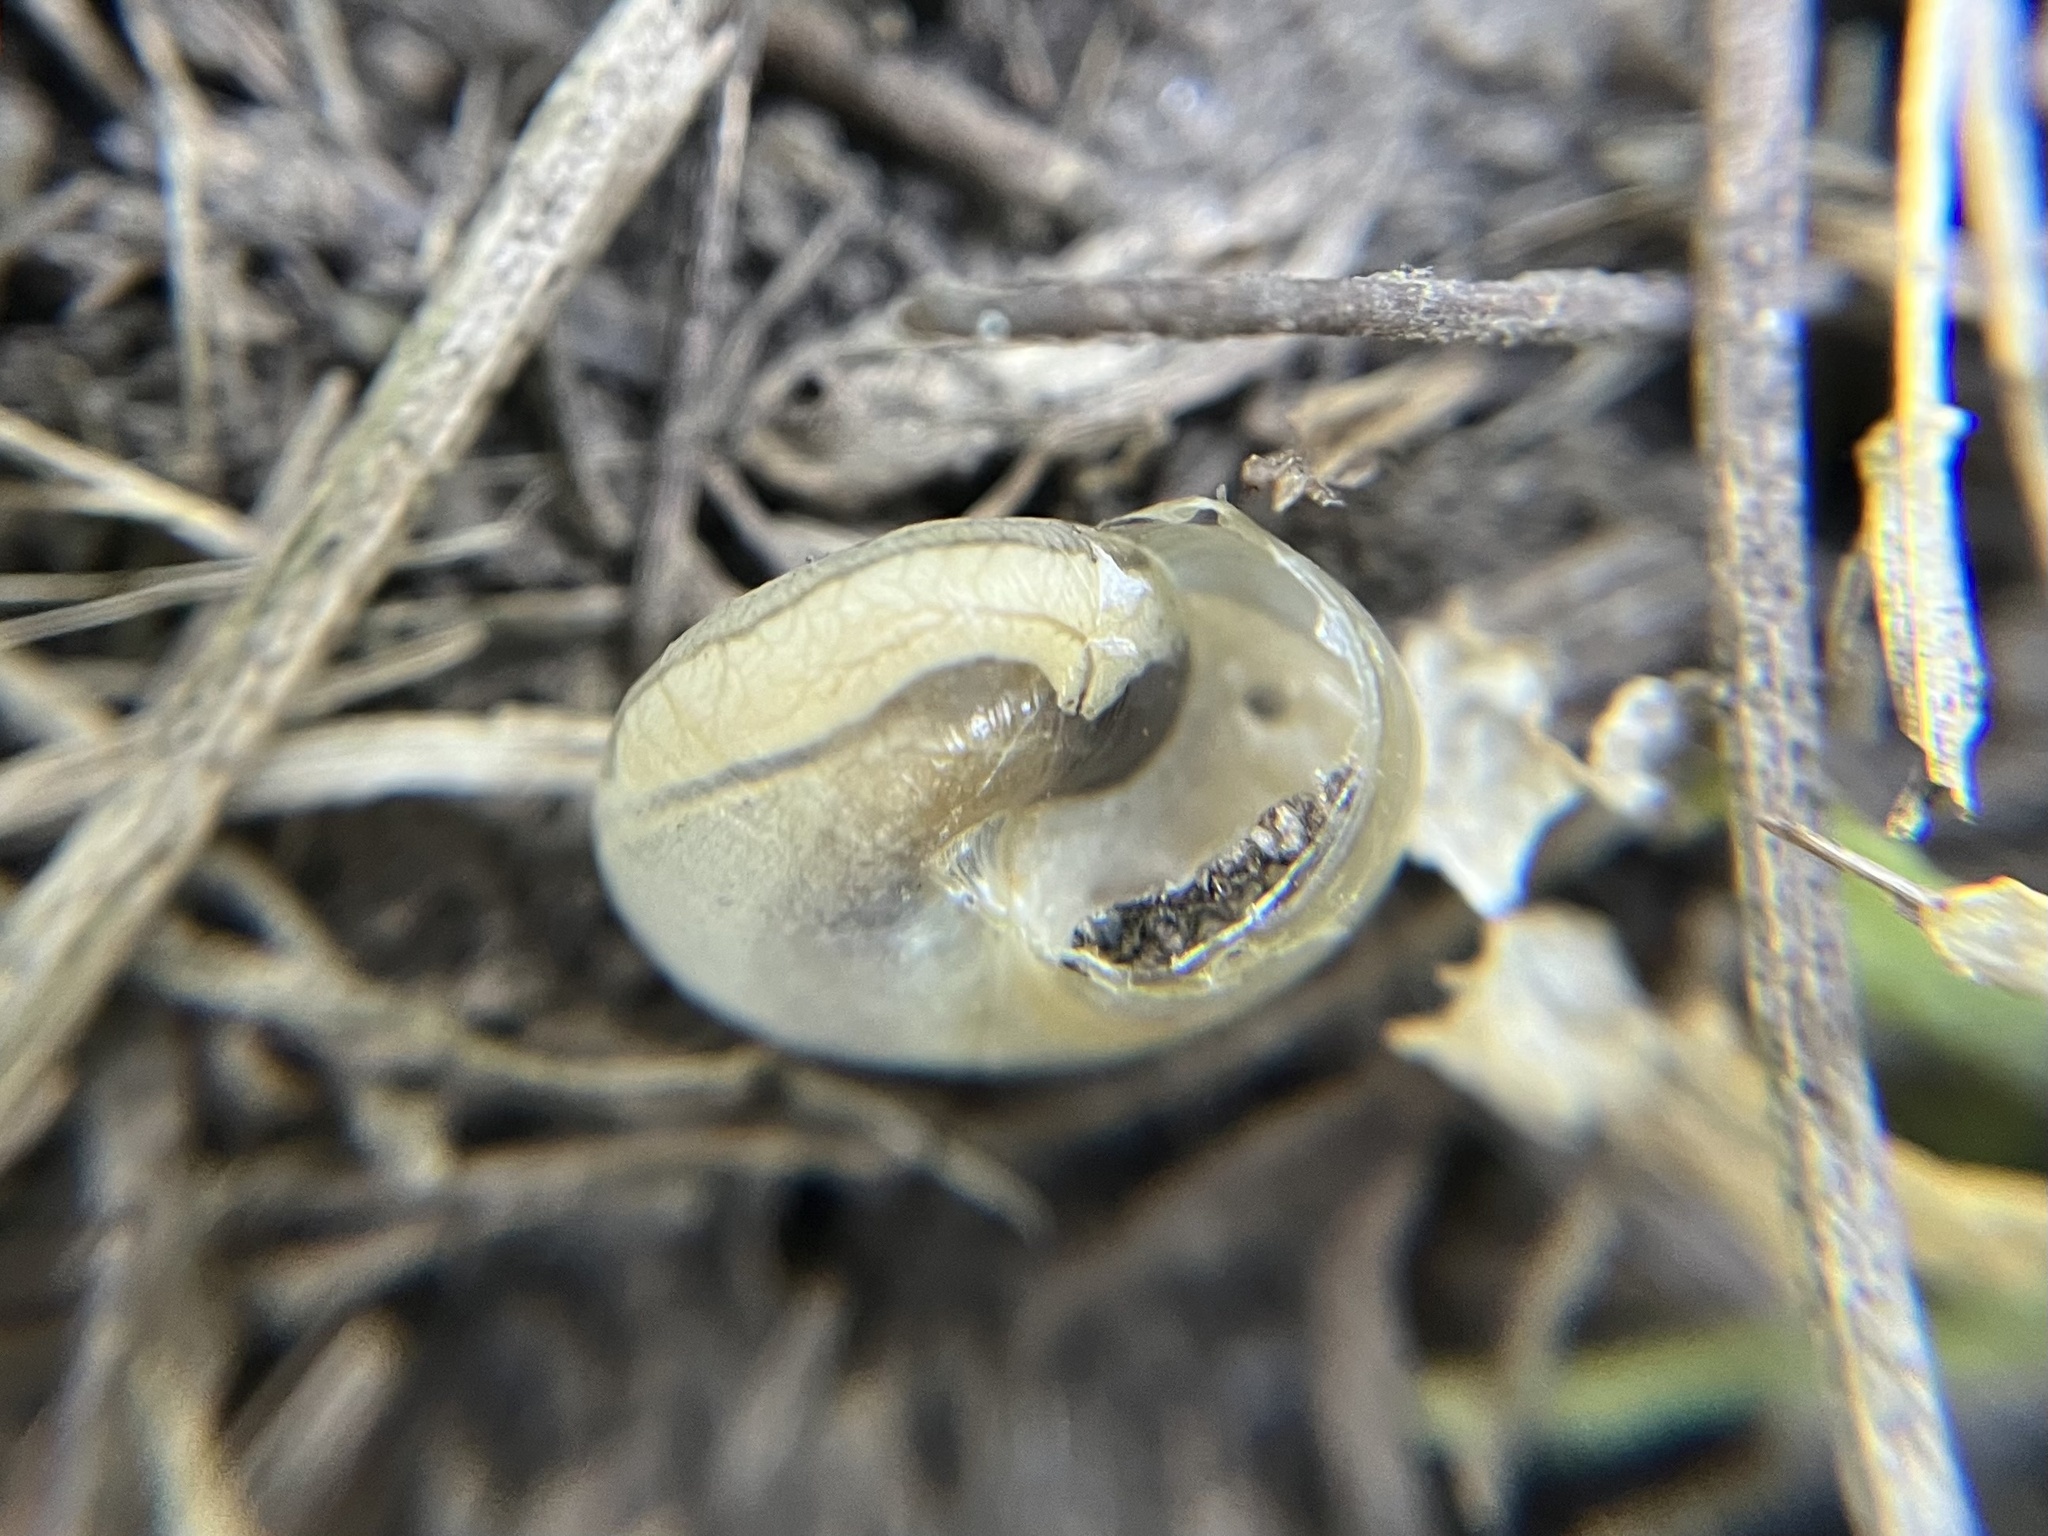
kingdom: Animalia
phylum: Mollusca
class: Gastropoda
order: Stylommatophora
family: Hygromiidae
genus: Monacha
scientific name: Monacha cartusiana
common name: Carthusian snail
